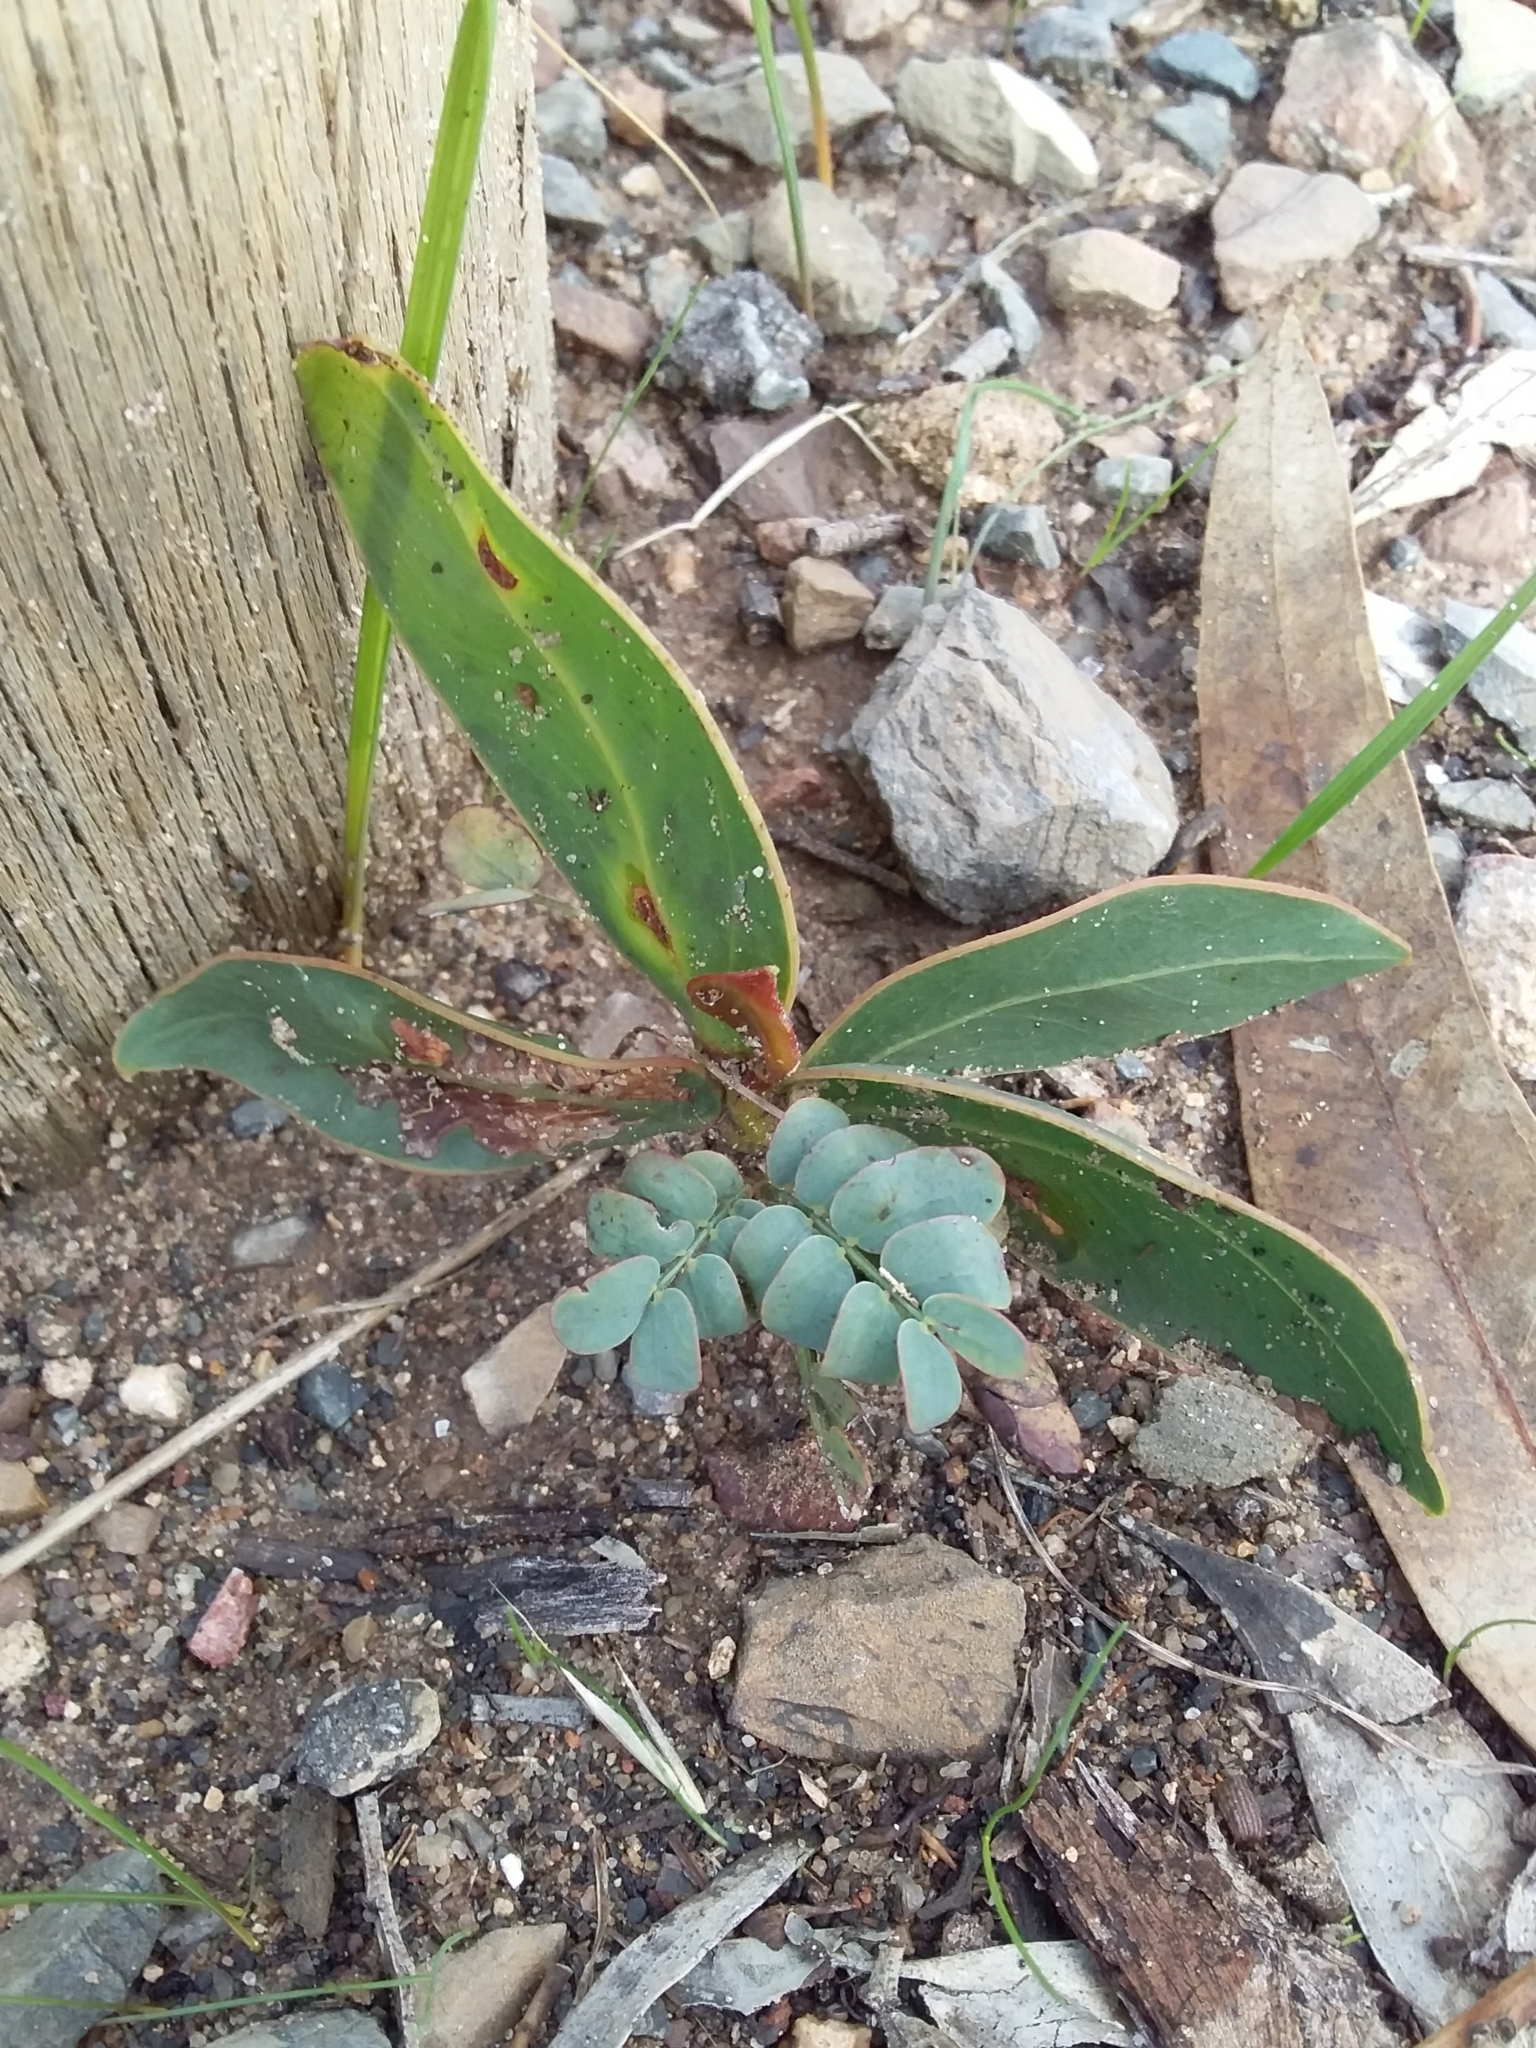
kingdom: Plantae
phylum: Tracheophyta
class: Magnoliopsida
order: Fabales
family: Fabaceae
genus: Acacia
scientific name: Acacia pycnantha
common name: Golden wattle
